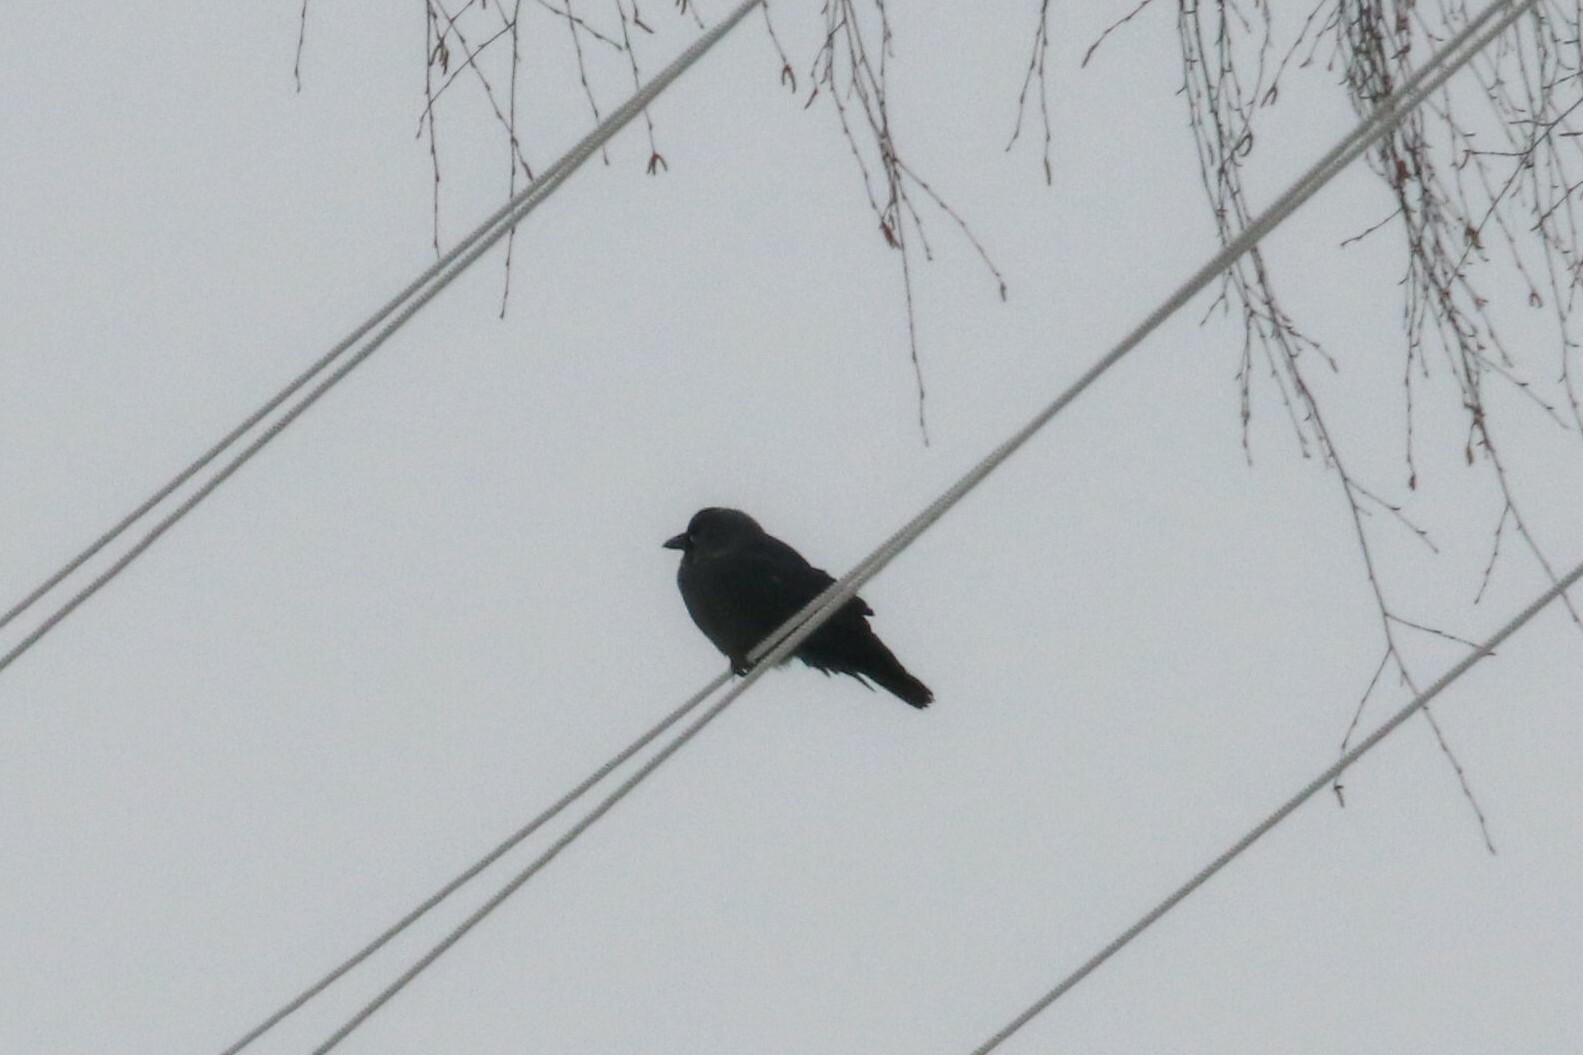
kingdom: Animalia
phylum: Chordata
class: Aves
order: Passeriformes
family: Corvidae
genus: Coloeus
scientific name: Coloeus monedula
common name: Western jackdaw
